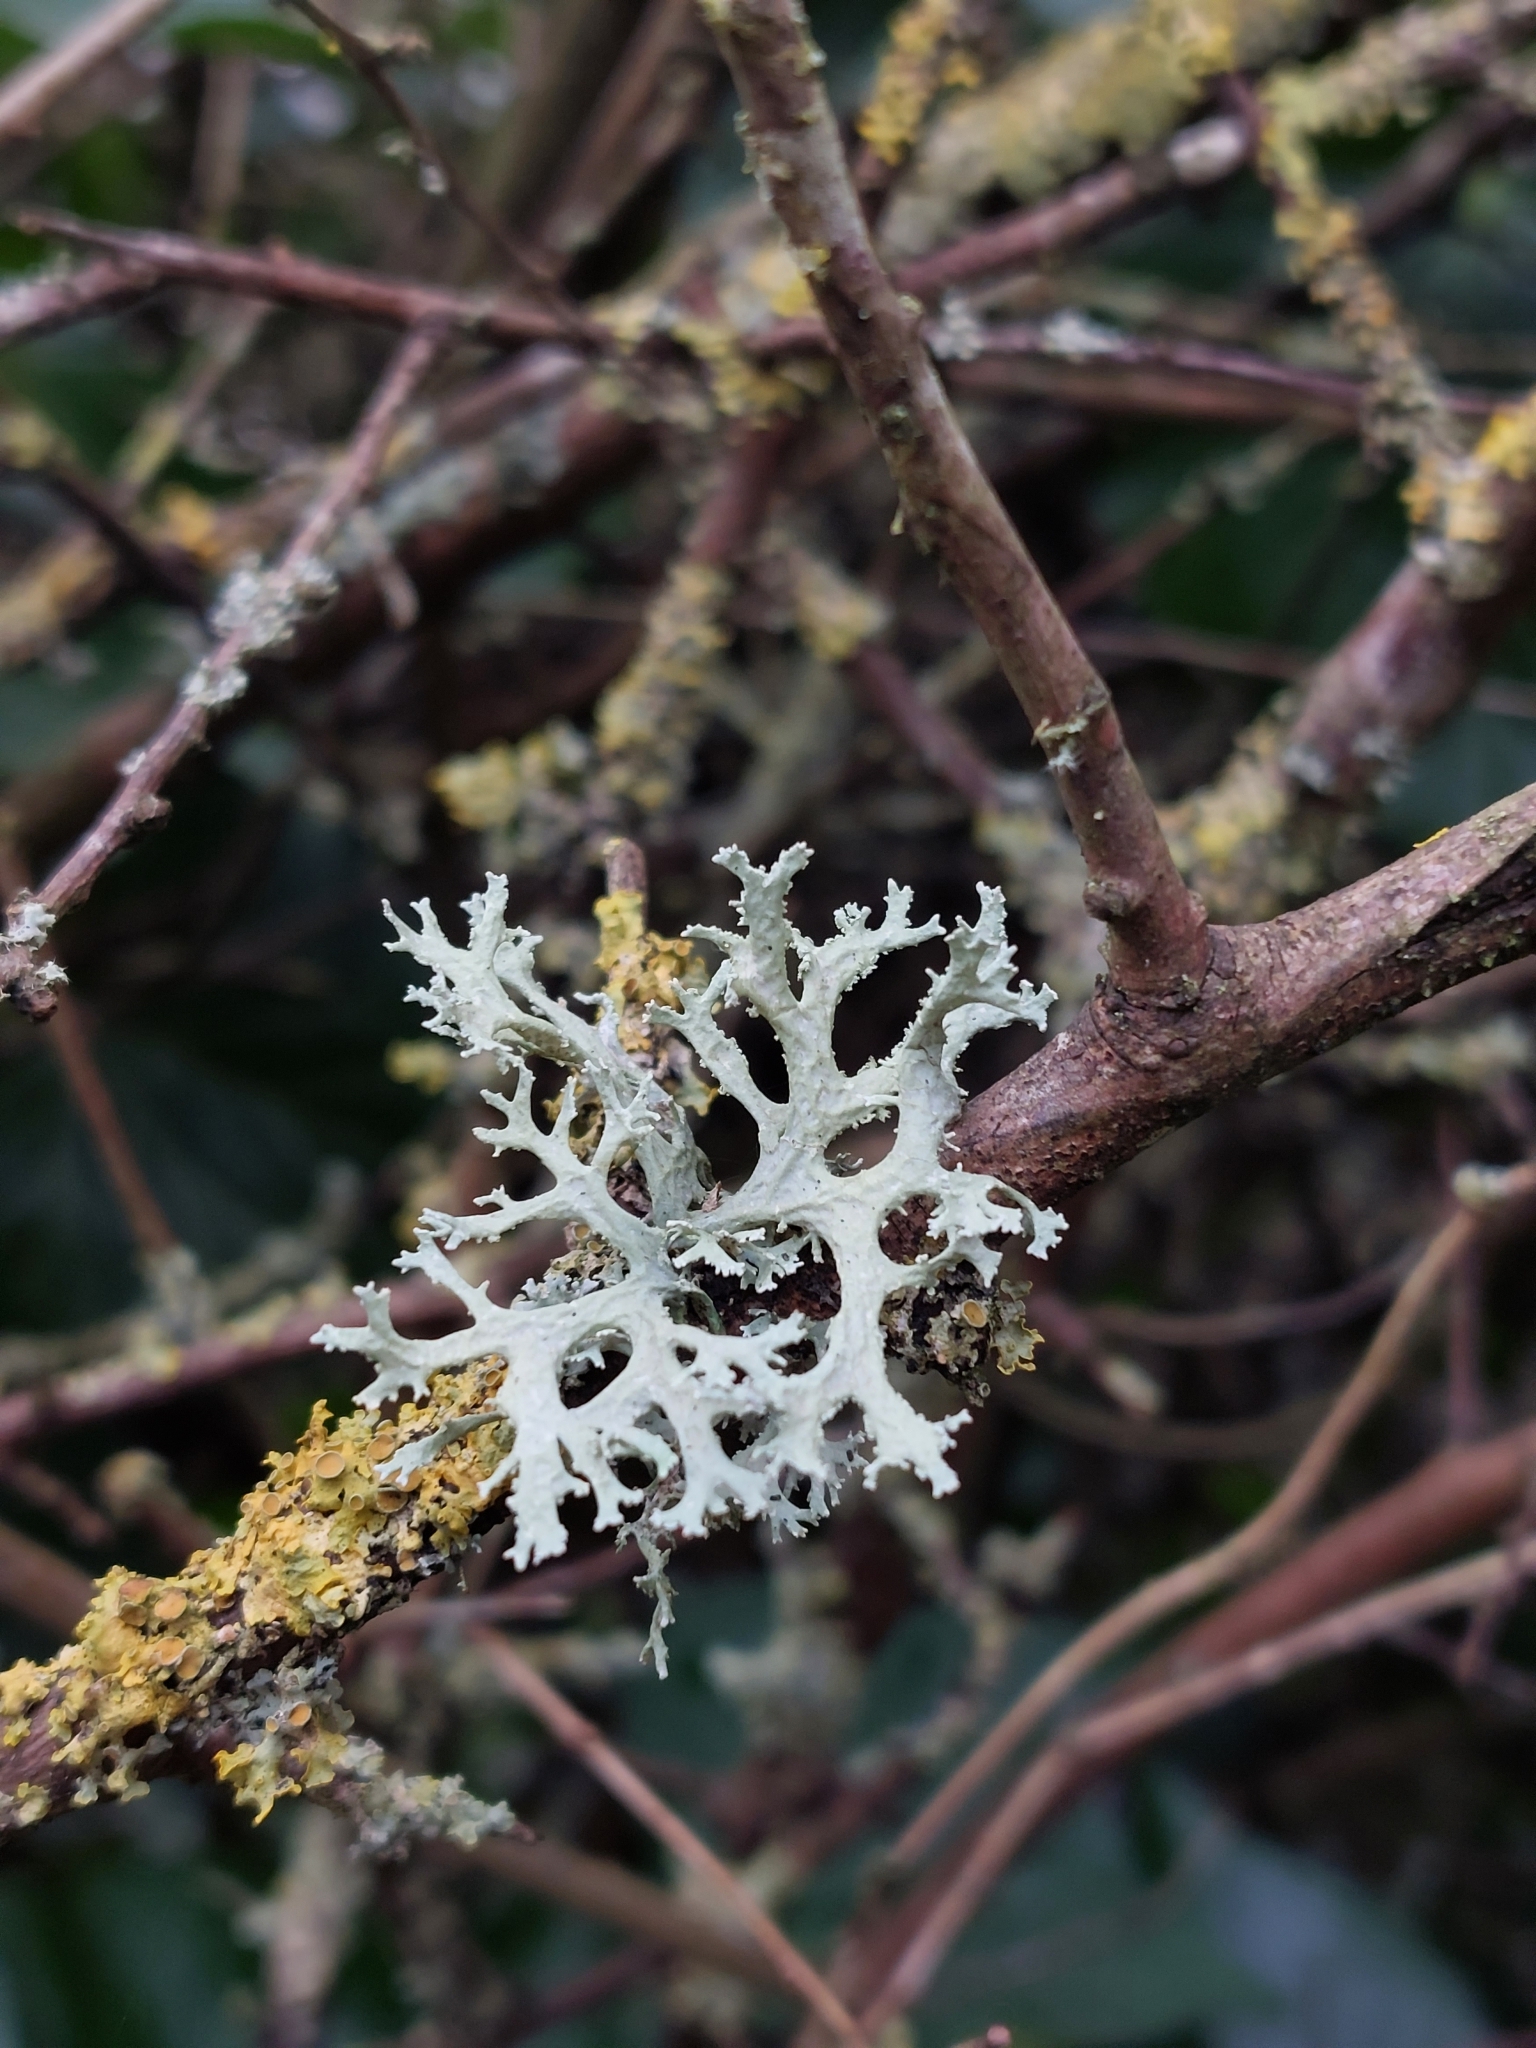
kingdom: Fungi
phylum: Ascomycota
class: Lecanoromycetes
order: Lecanorales
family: Parmeliaceae
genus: Evernia
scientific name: Evernia prunastri
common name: Oak moss
